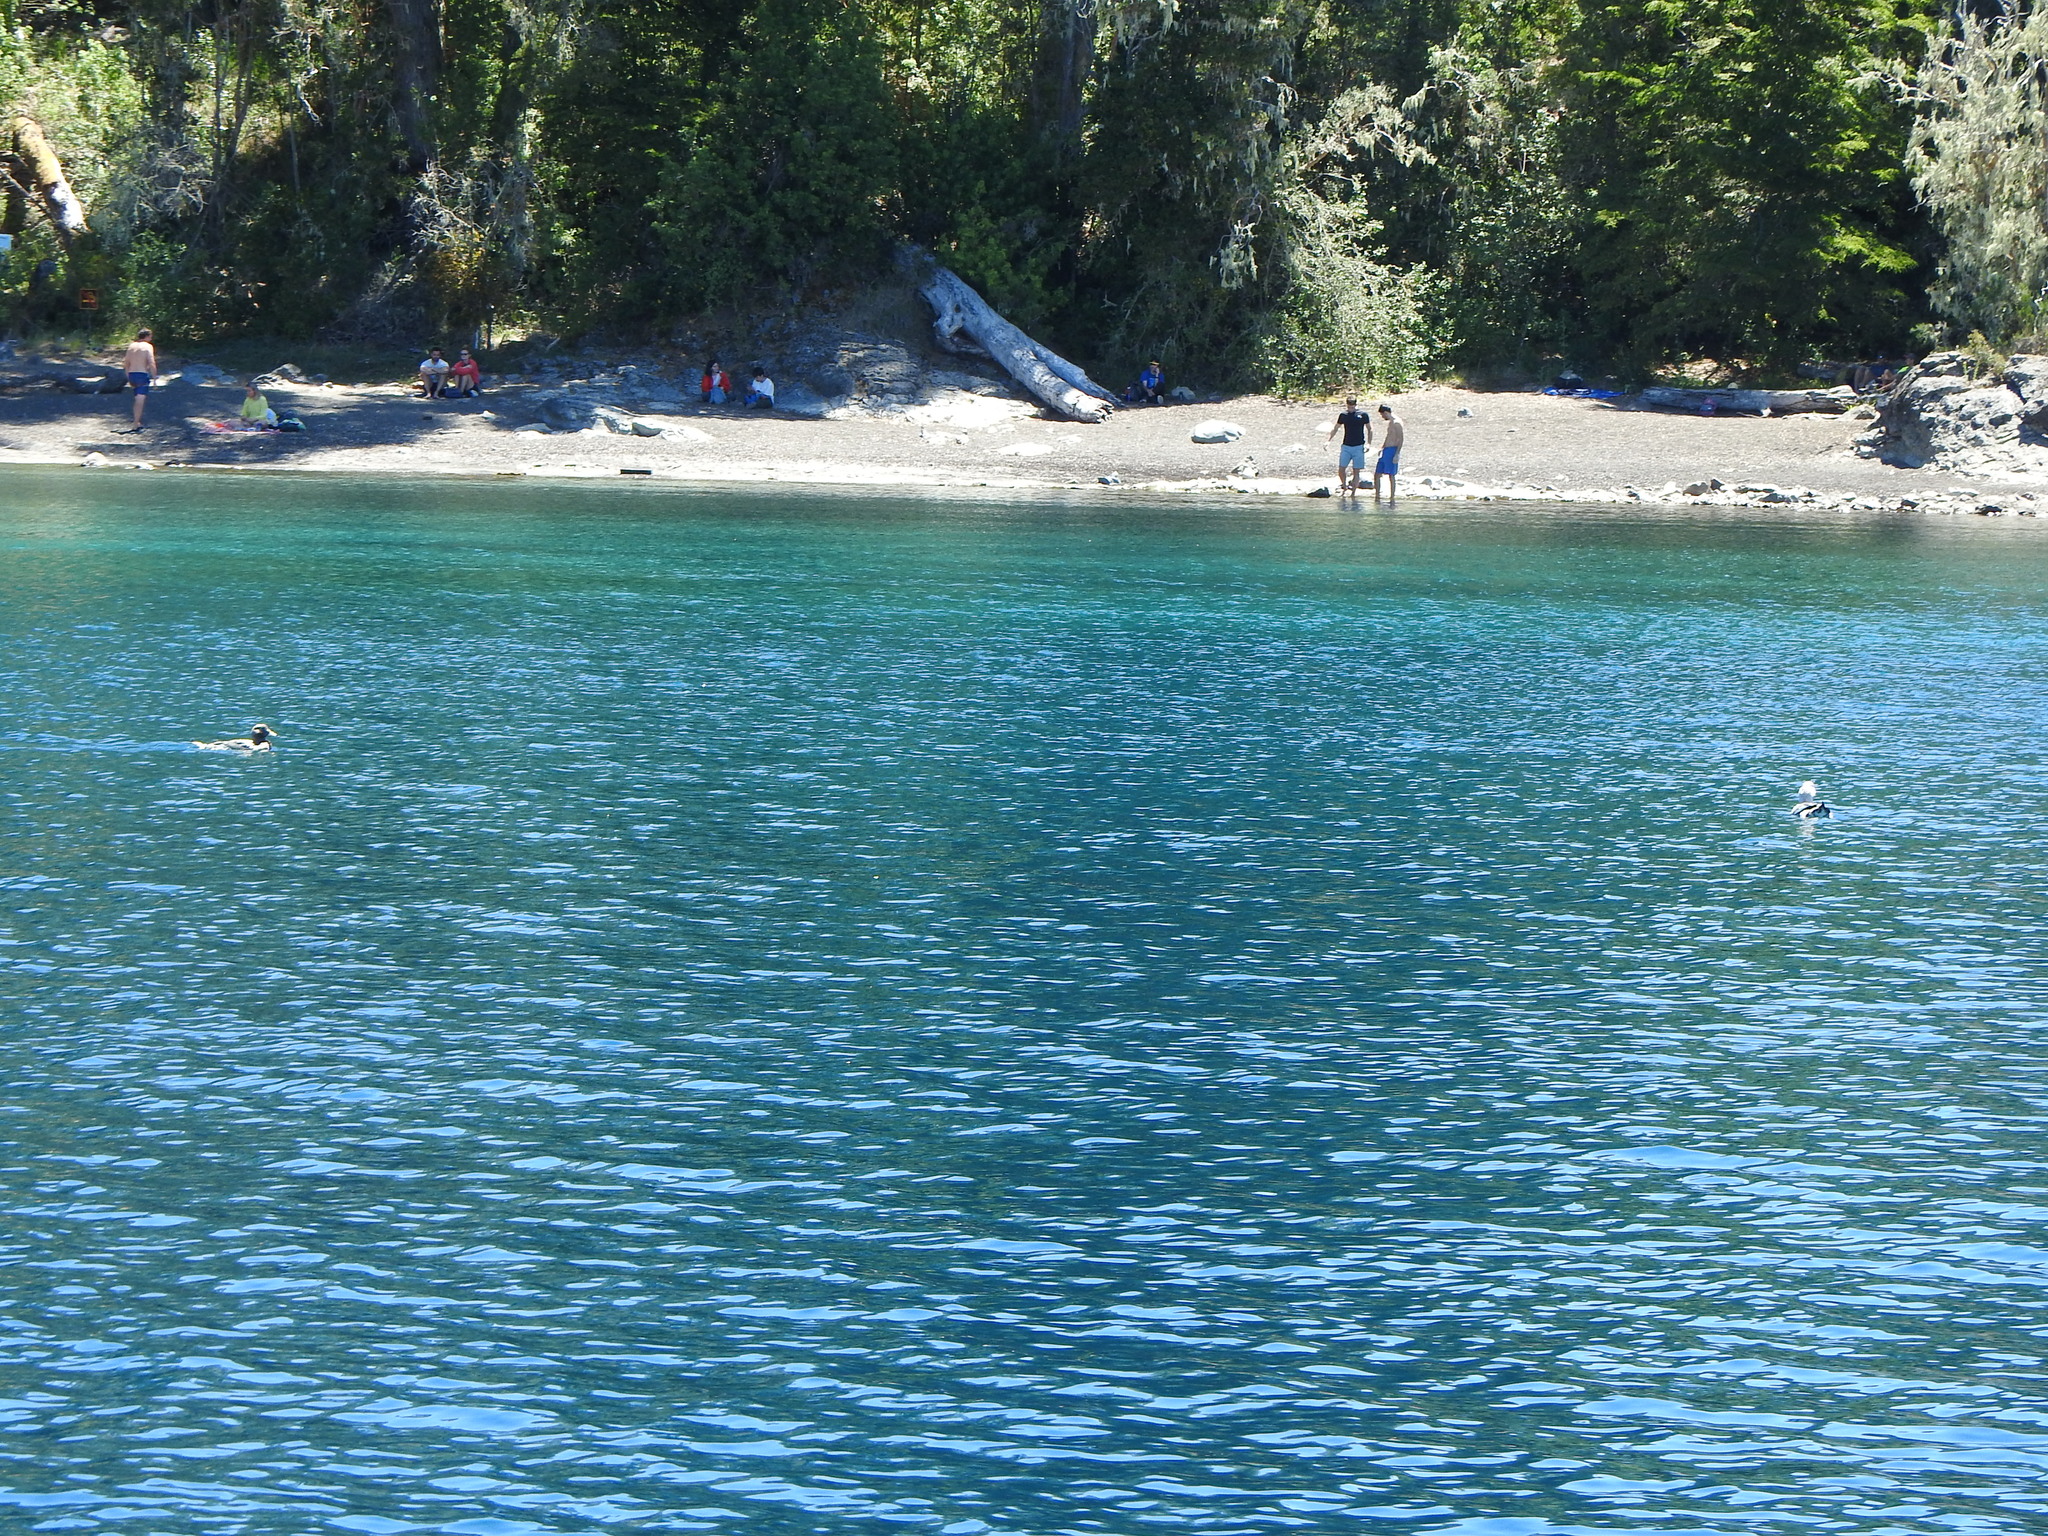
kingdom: Animalia
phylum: Chordata
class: Aves
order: Anseriformes
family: Anatidae
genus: Tachyeres
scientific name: Tachyeres patachonicus
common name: Flying steamer duck
